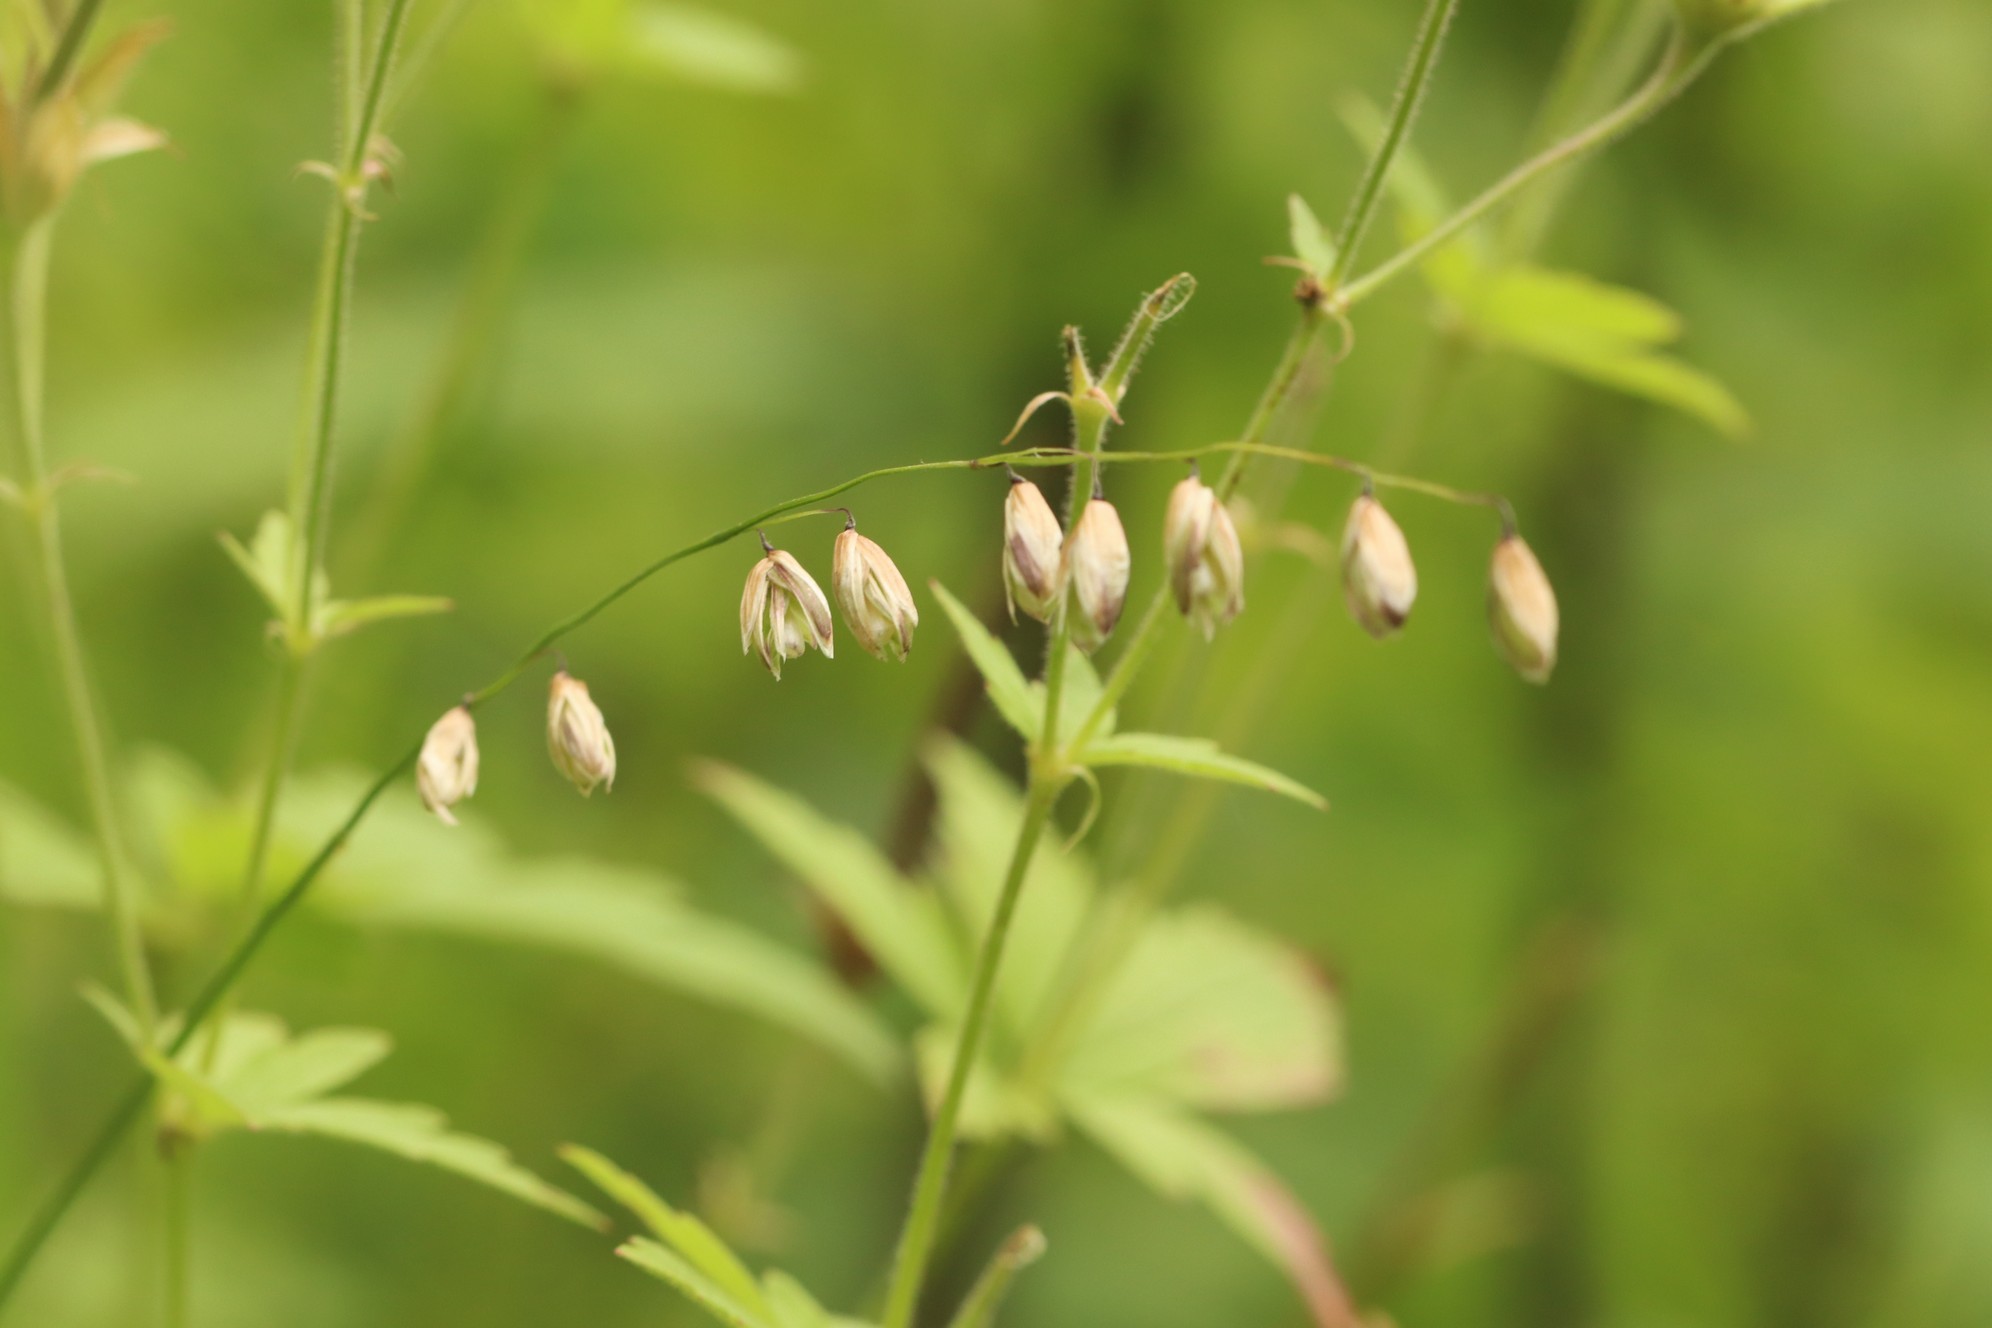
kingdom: Plantae
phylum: Tracheophyta
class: Liliopsida
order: Poales
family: Poaceae
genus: Melica
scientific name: Melica nutans
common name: Mountain melick
